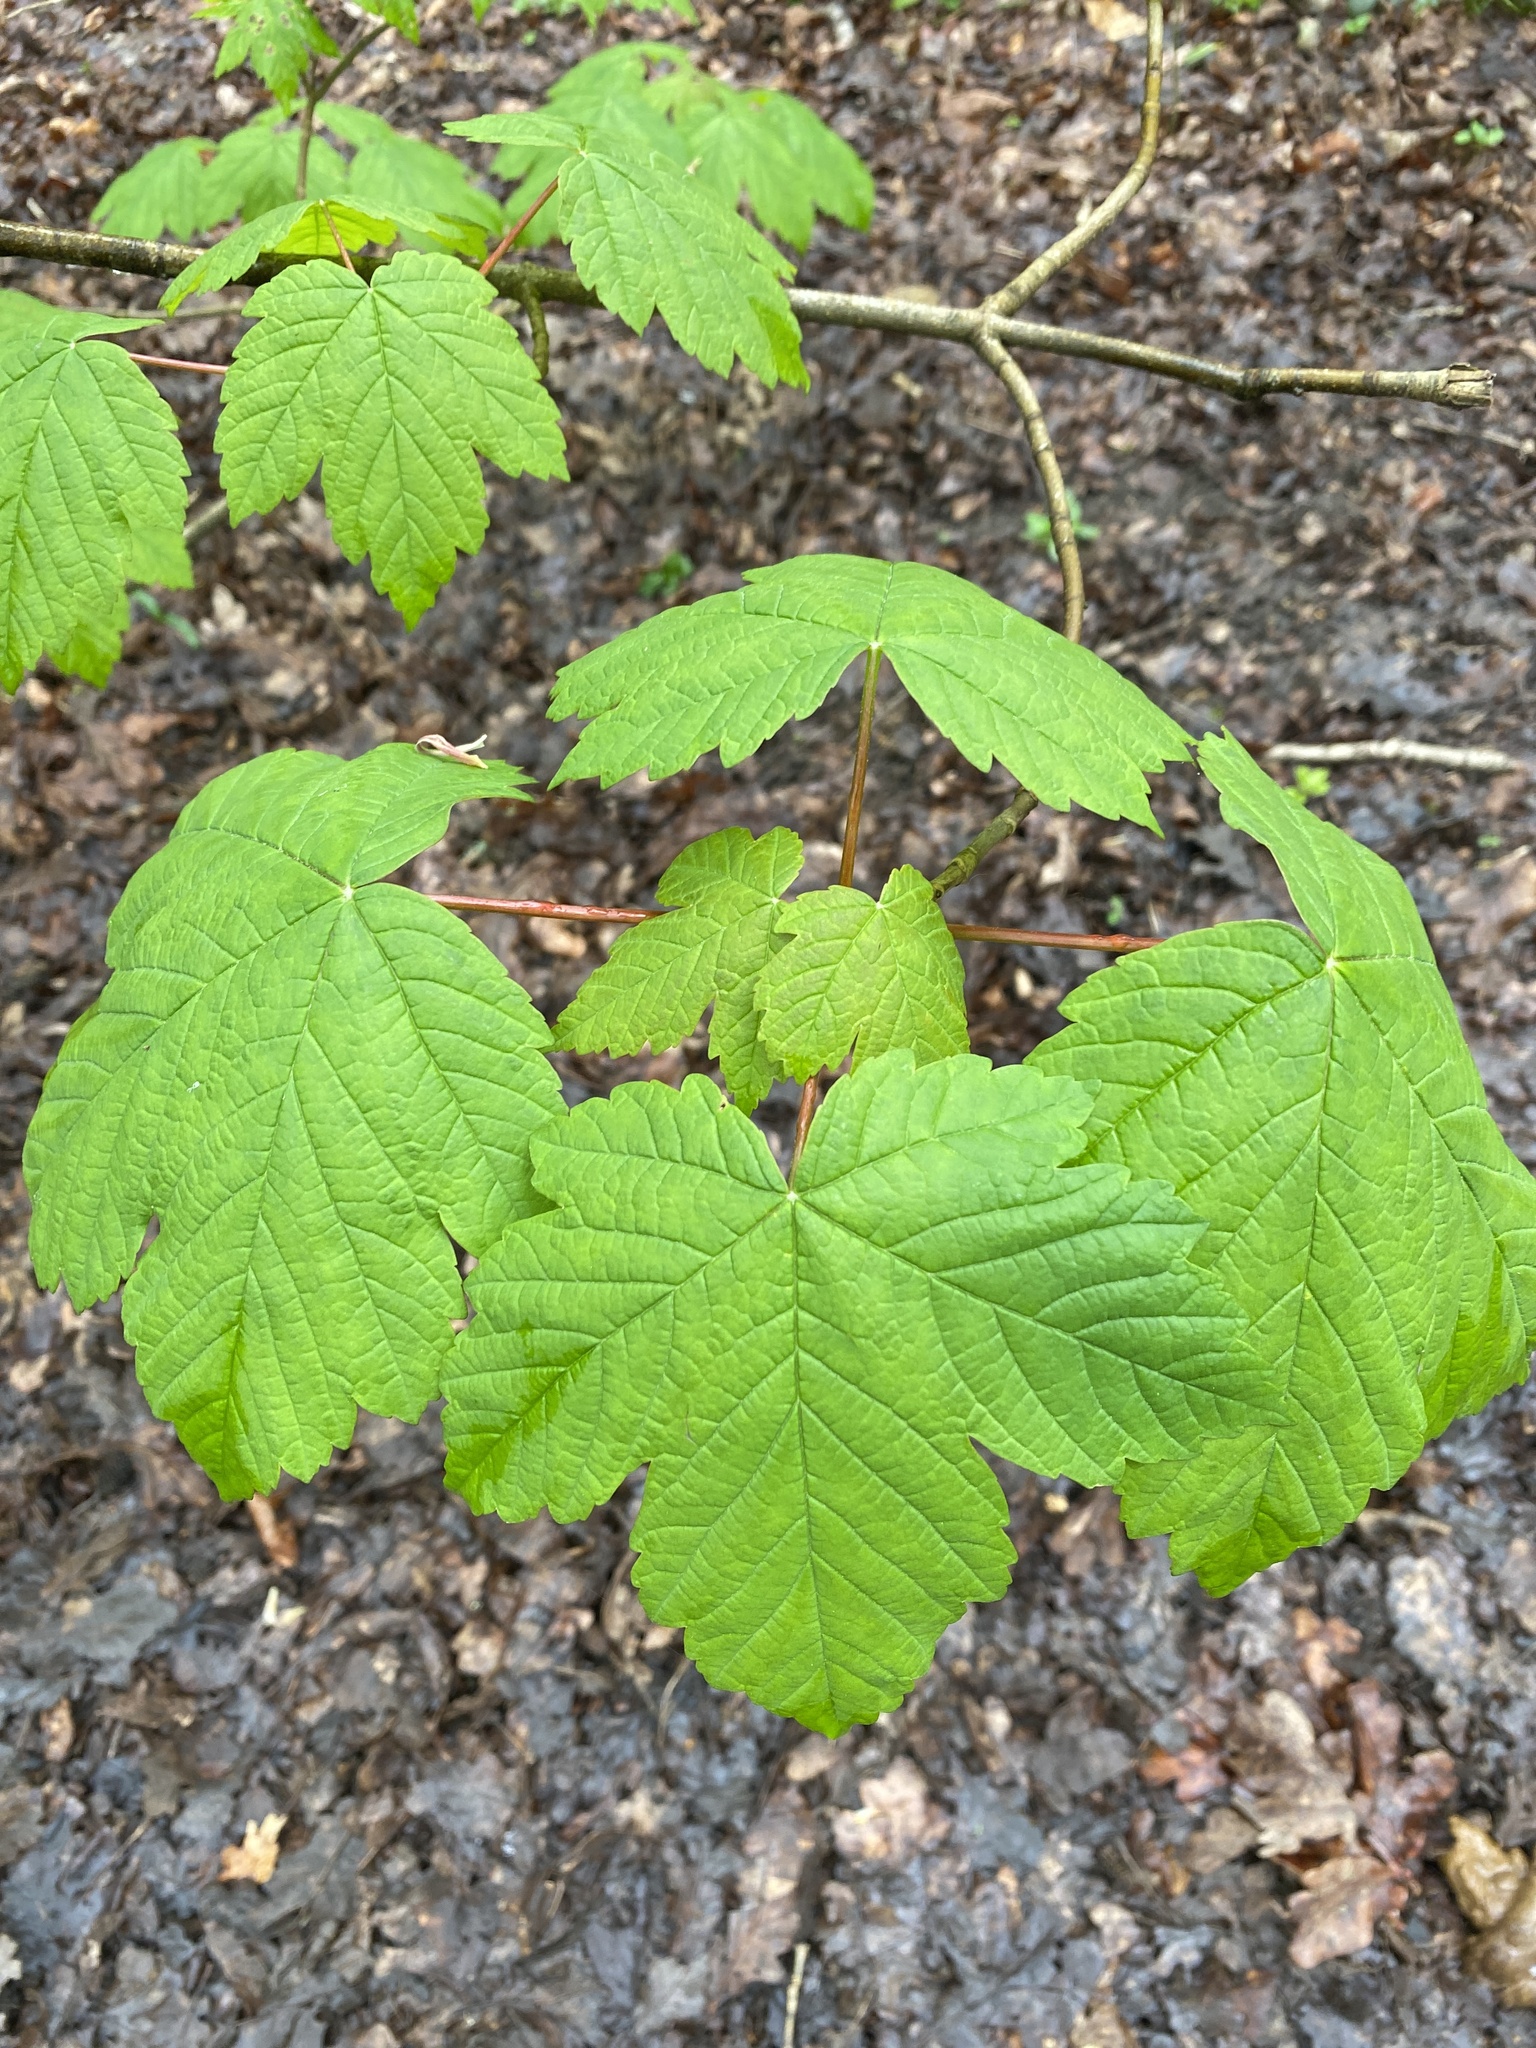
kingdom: Plantae
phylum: Tracheophyta
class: Magnoliopsida
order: Sapindales
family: Sapindaceae
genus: Acer
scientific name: Acer pseudoplatanus
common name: Sycamore
